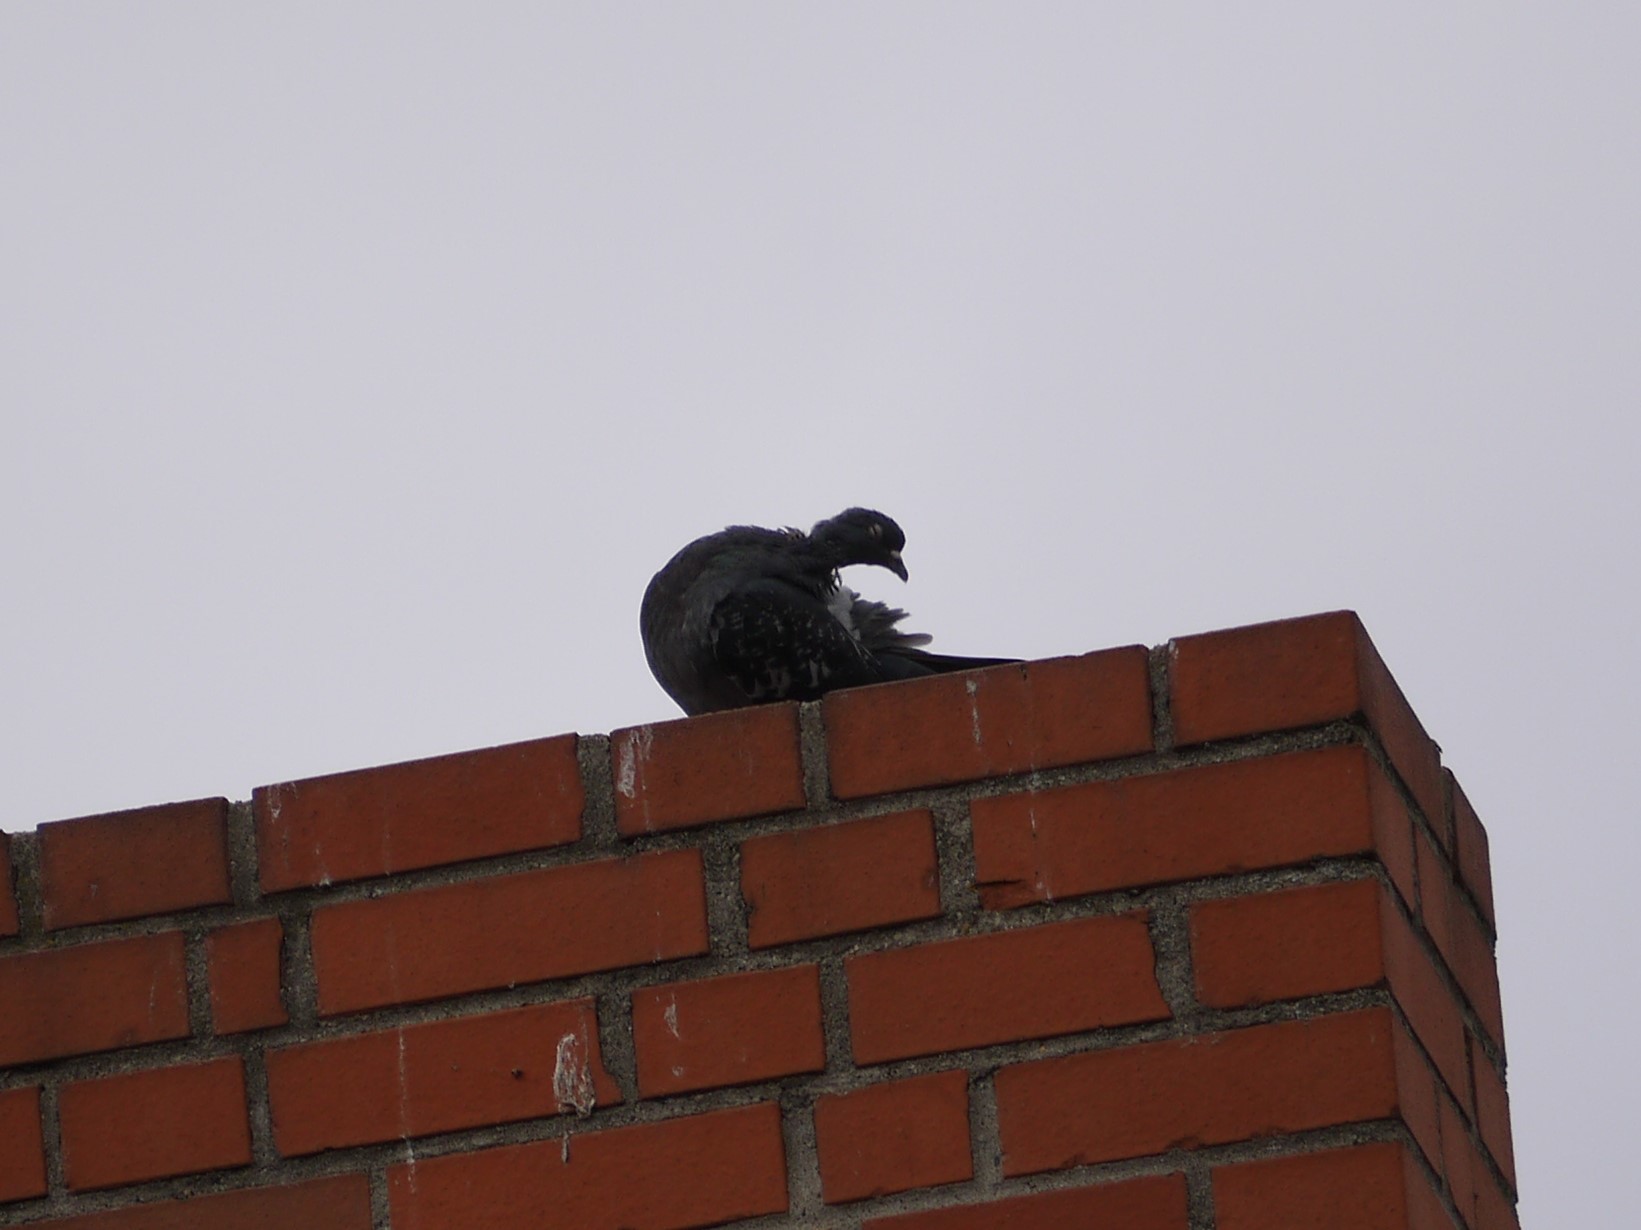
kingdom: Animalia
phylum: Chordata
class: Aves
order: Columbiformes
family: Columbidae
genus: Columba
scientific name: Columba livia
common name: Rock pigeon
